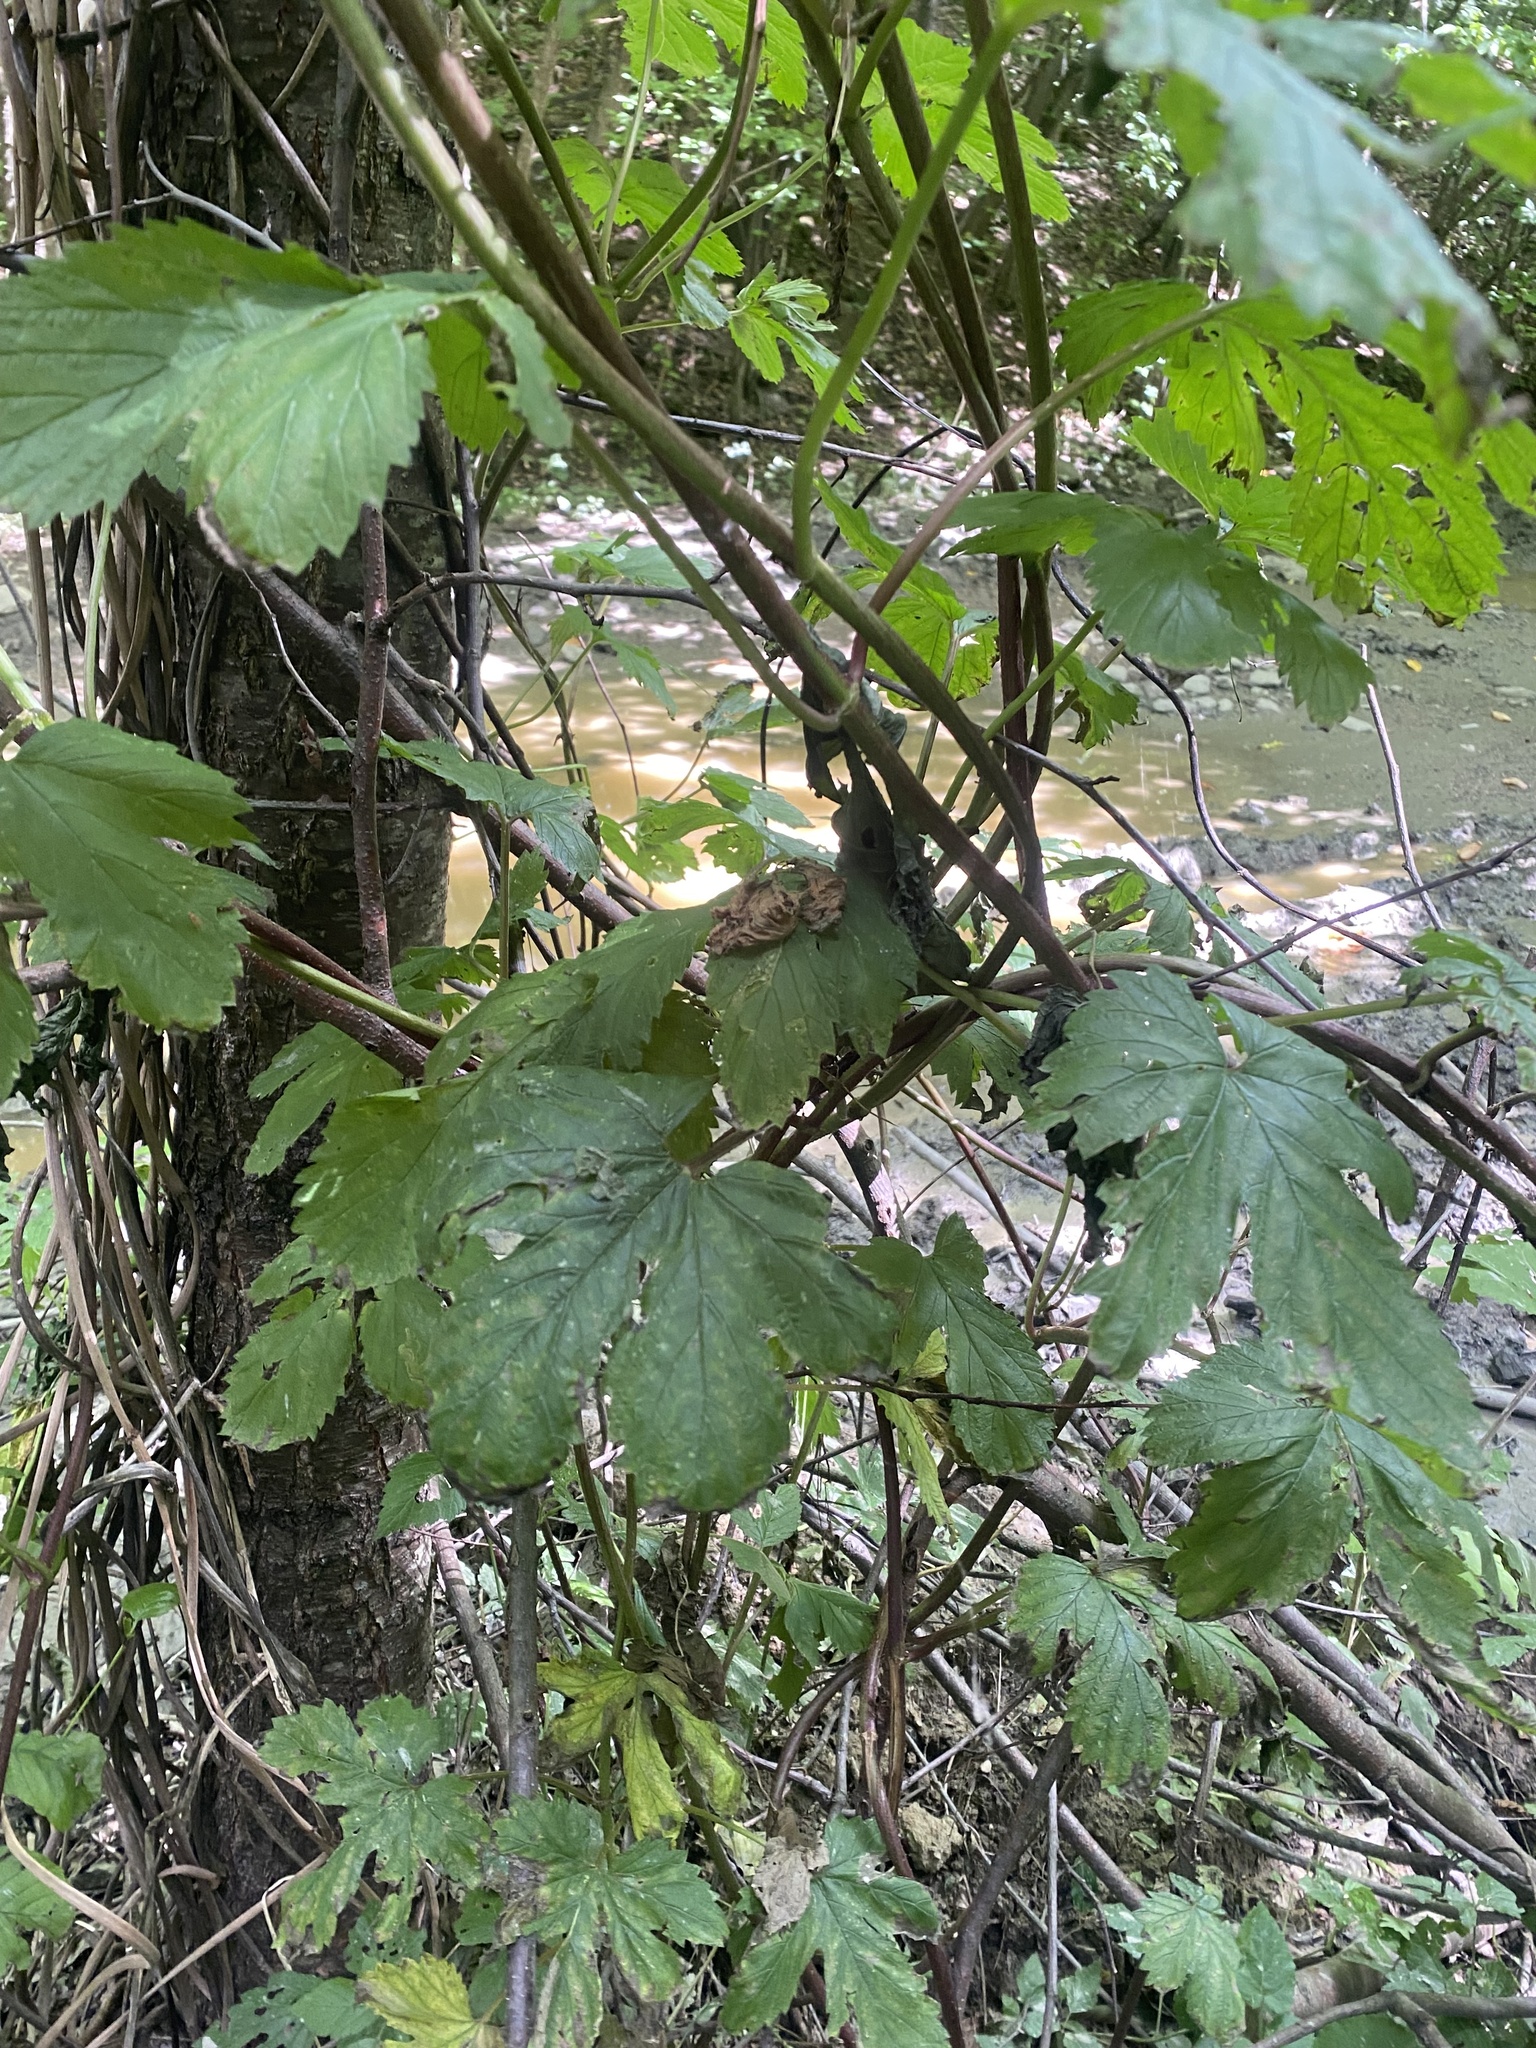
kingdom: Plantae
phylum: Tracheophyta
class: Magnoliopsida
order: Rosales
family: Cannabaceae
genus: Humulus
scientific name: Humulus lupulus
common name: Hop
